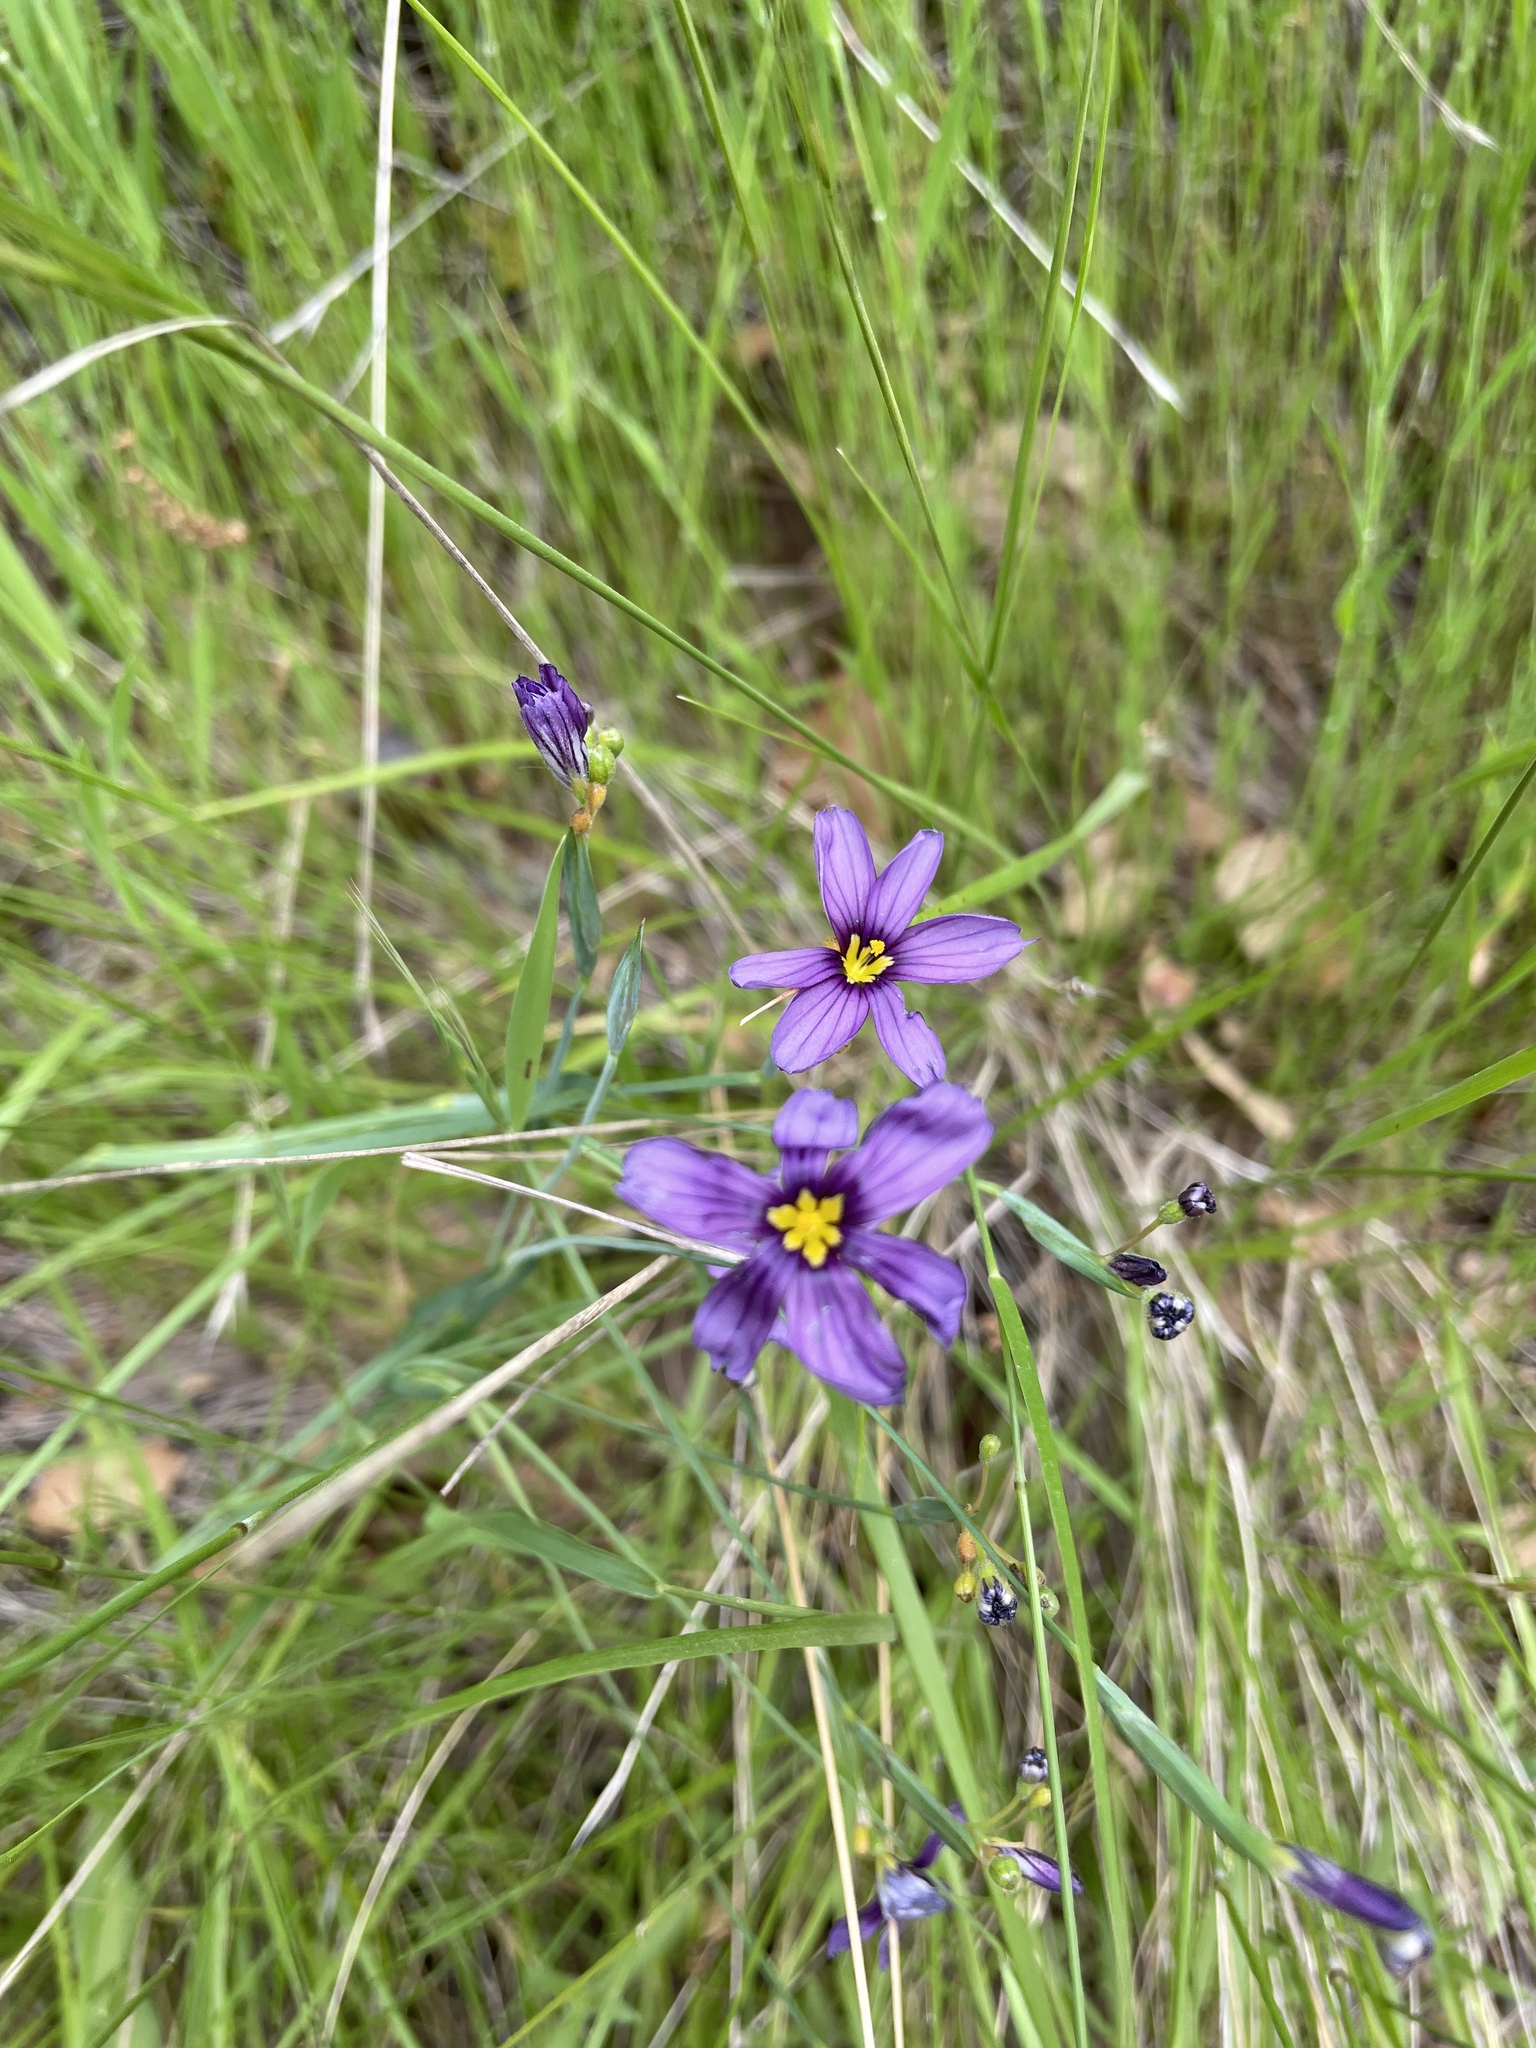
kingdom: Plantae
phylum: Tracheophyta
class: Liliopsida
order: Asparagales
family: Iridaceae
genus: Sisyrinchium
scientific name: Sisyrinchium bellum
